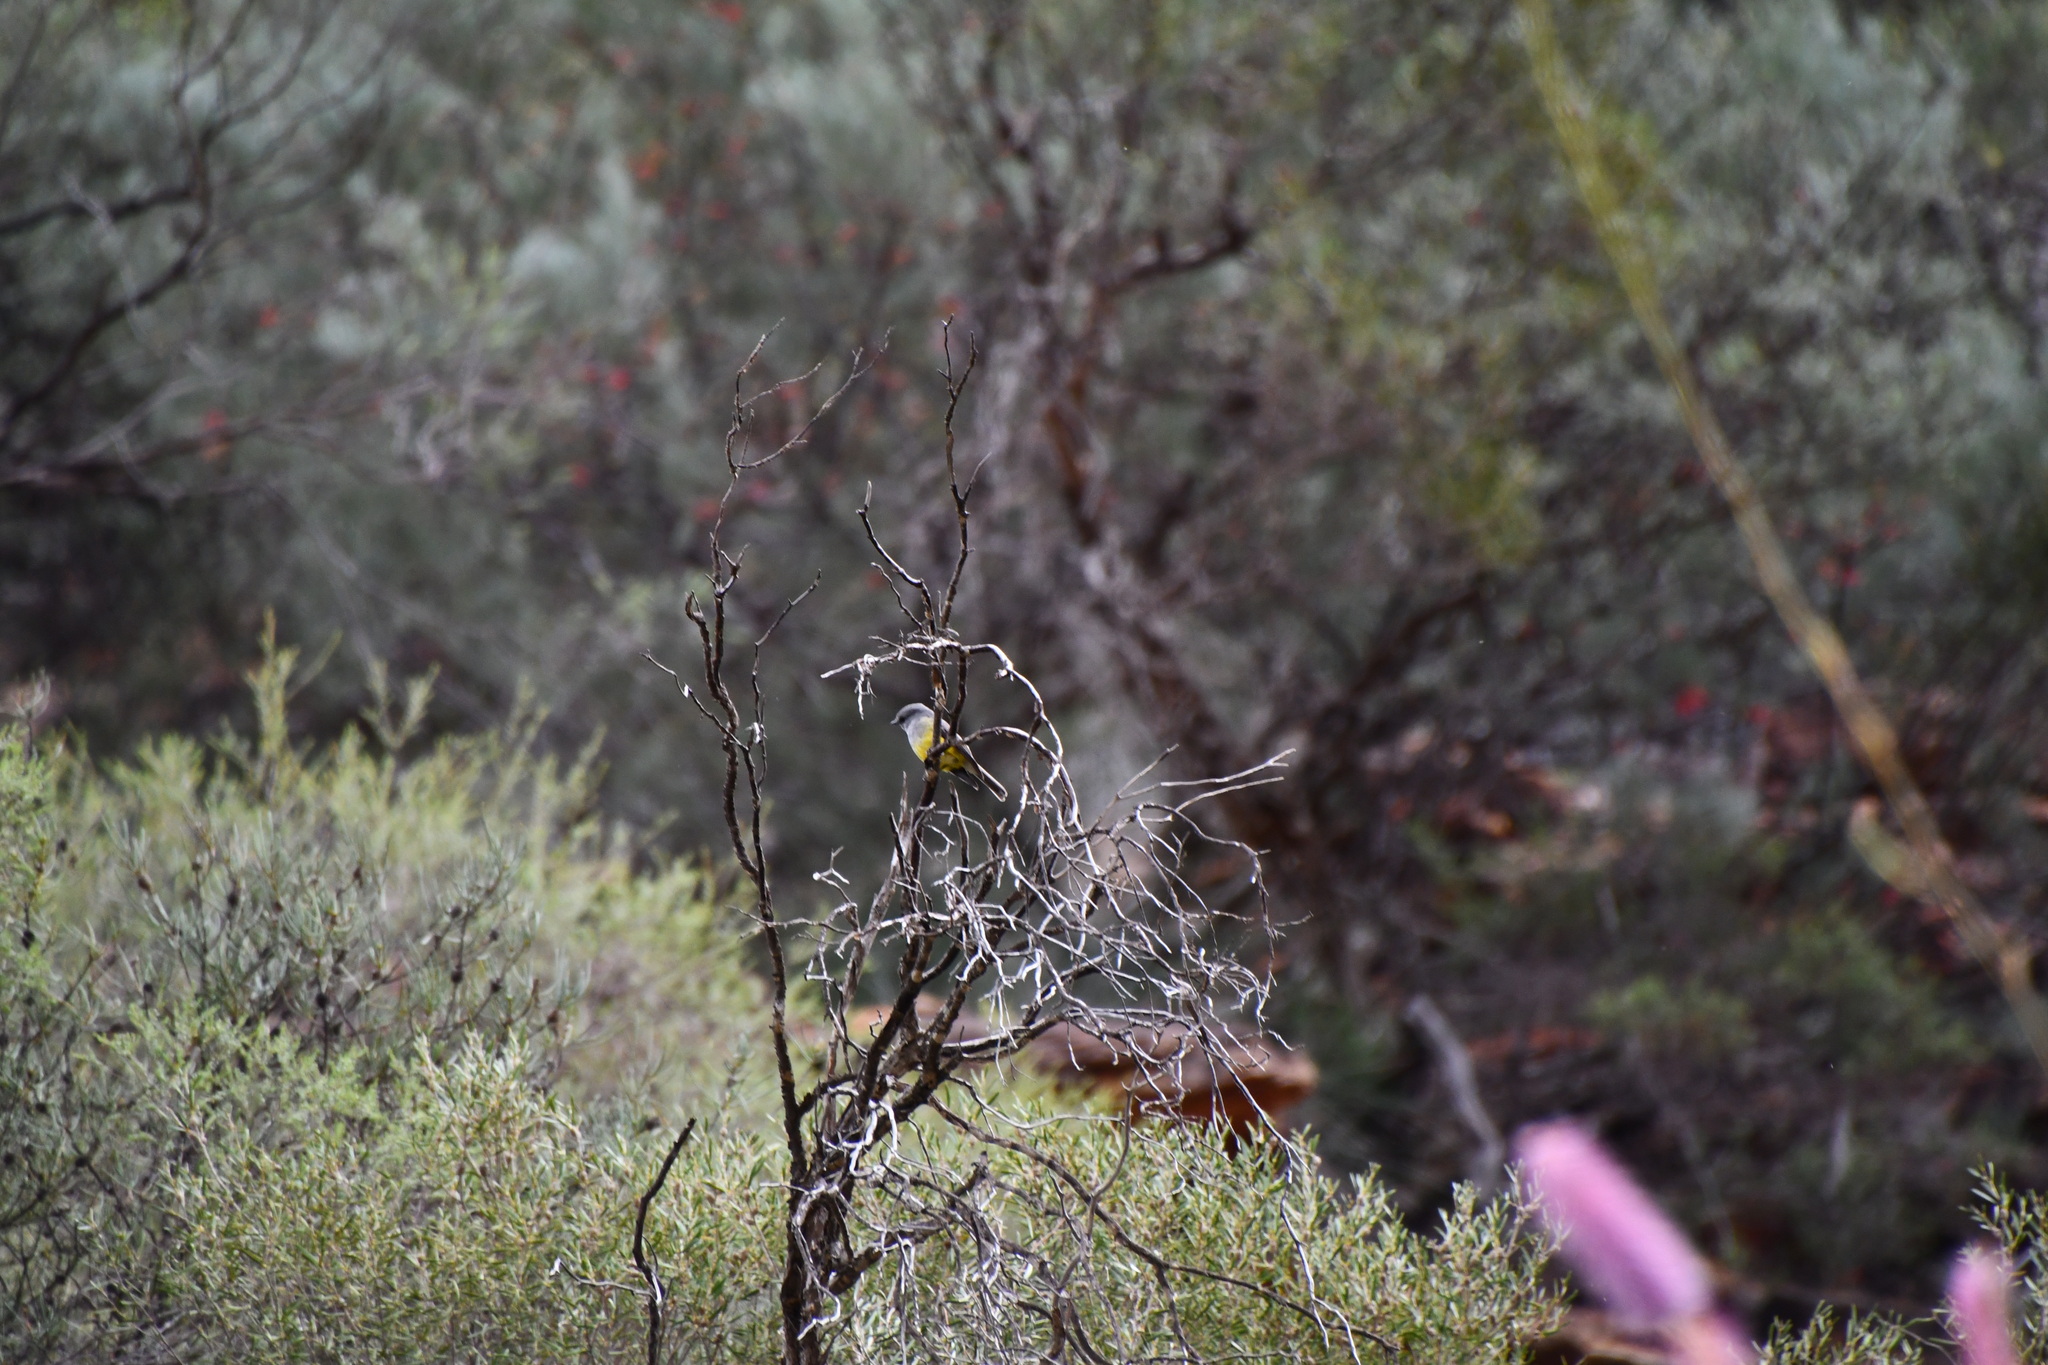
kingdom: Animalia
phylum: Chordata
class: Aves
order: Passeriformes
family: Petroicidae
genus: Eopsaltria
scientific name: Eopsaltria griseogularis
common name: Western yellow robin
